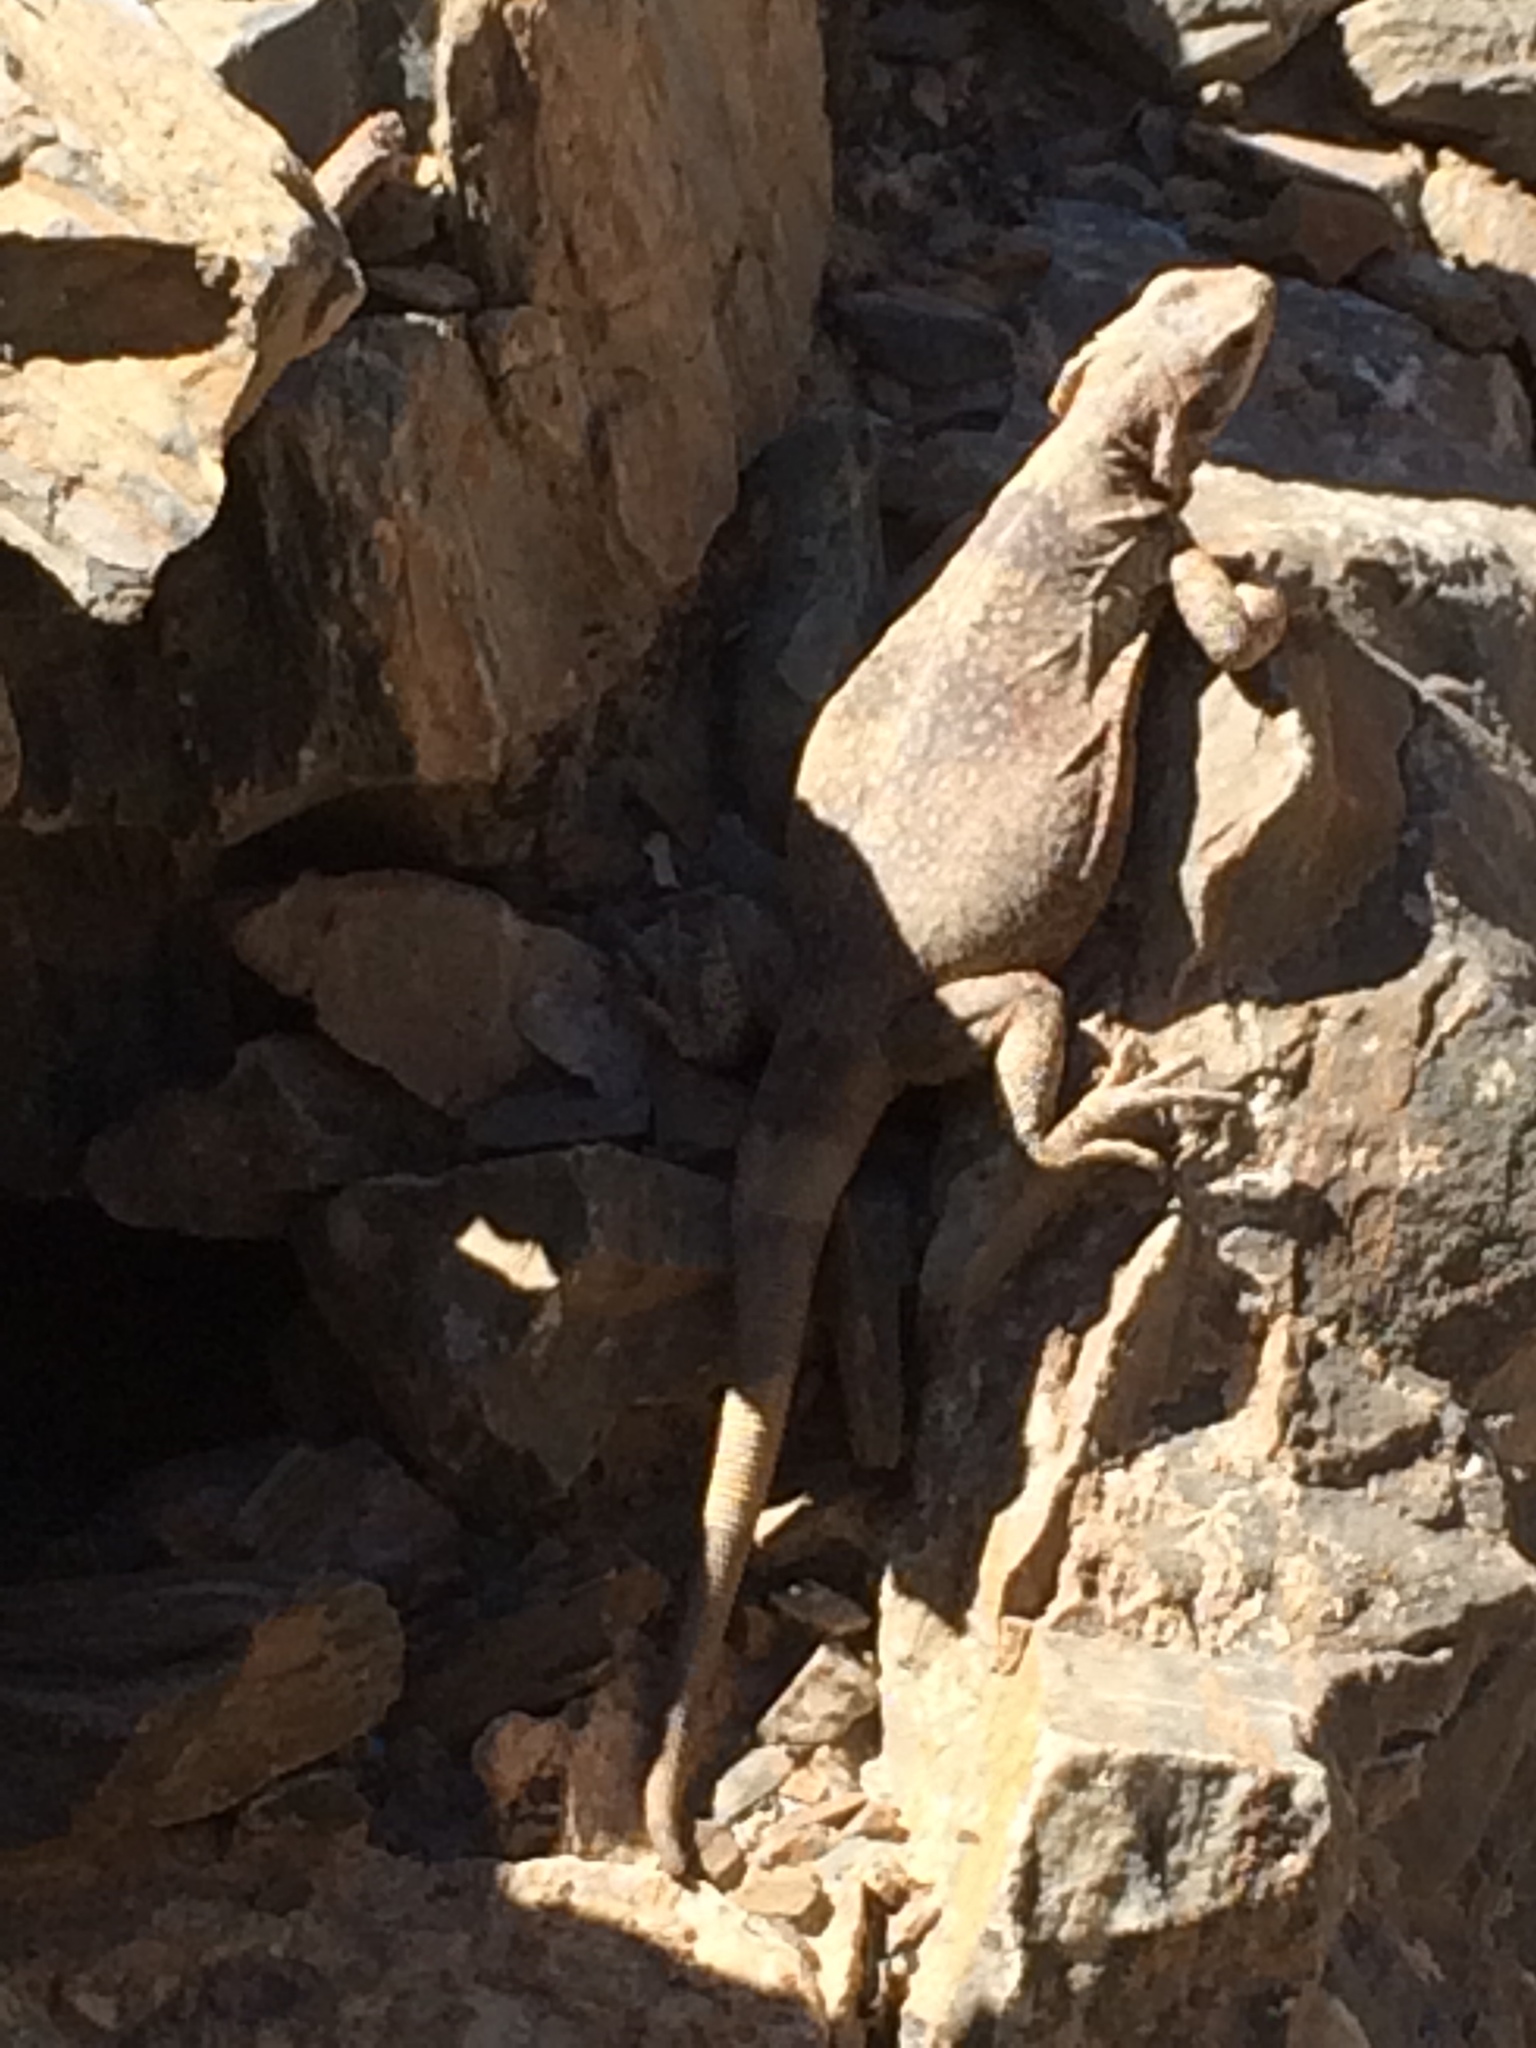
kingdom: Animalia
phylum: Chordata
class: Squamata
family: Iguanidae
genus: Sauromalus
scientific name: Sauromalus ater
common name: Northern chuckwalla
